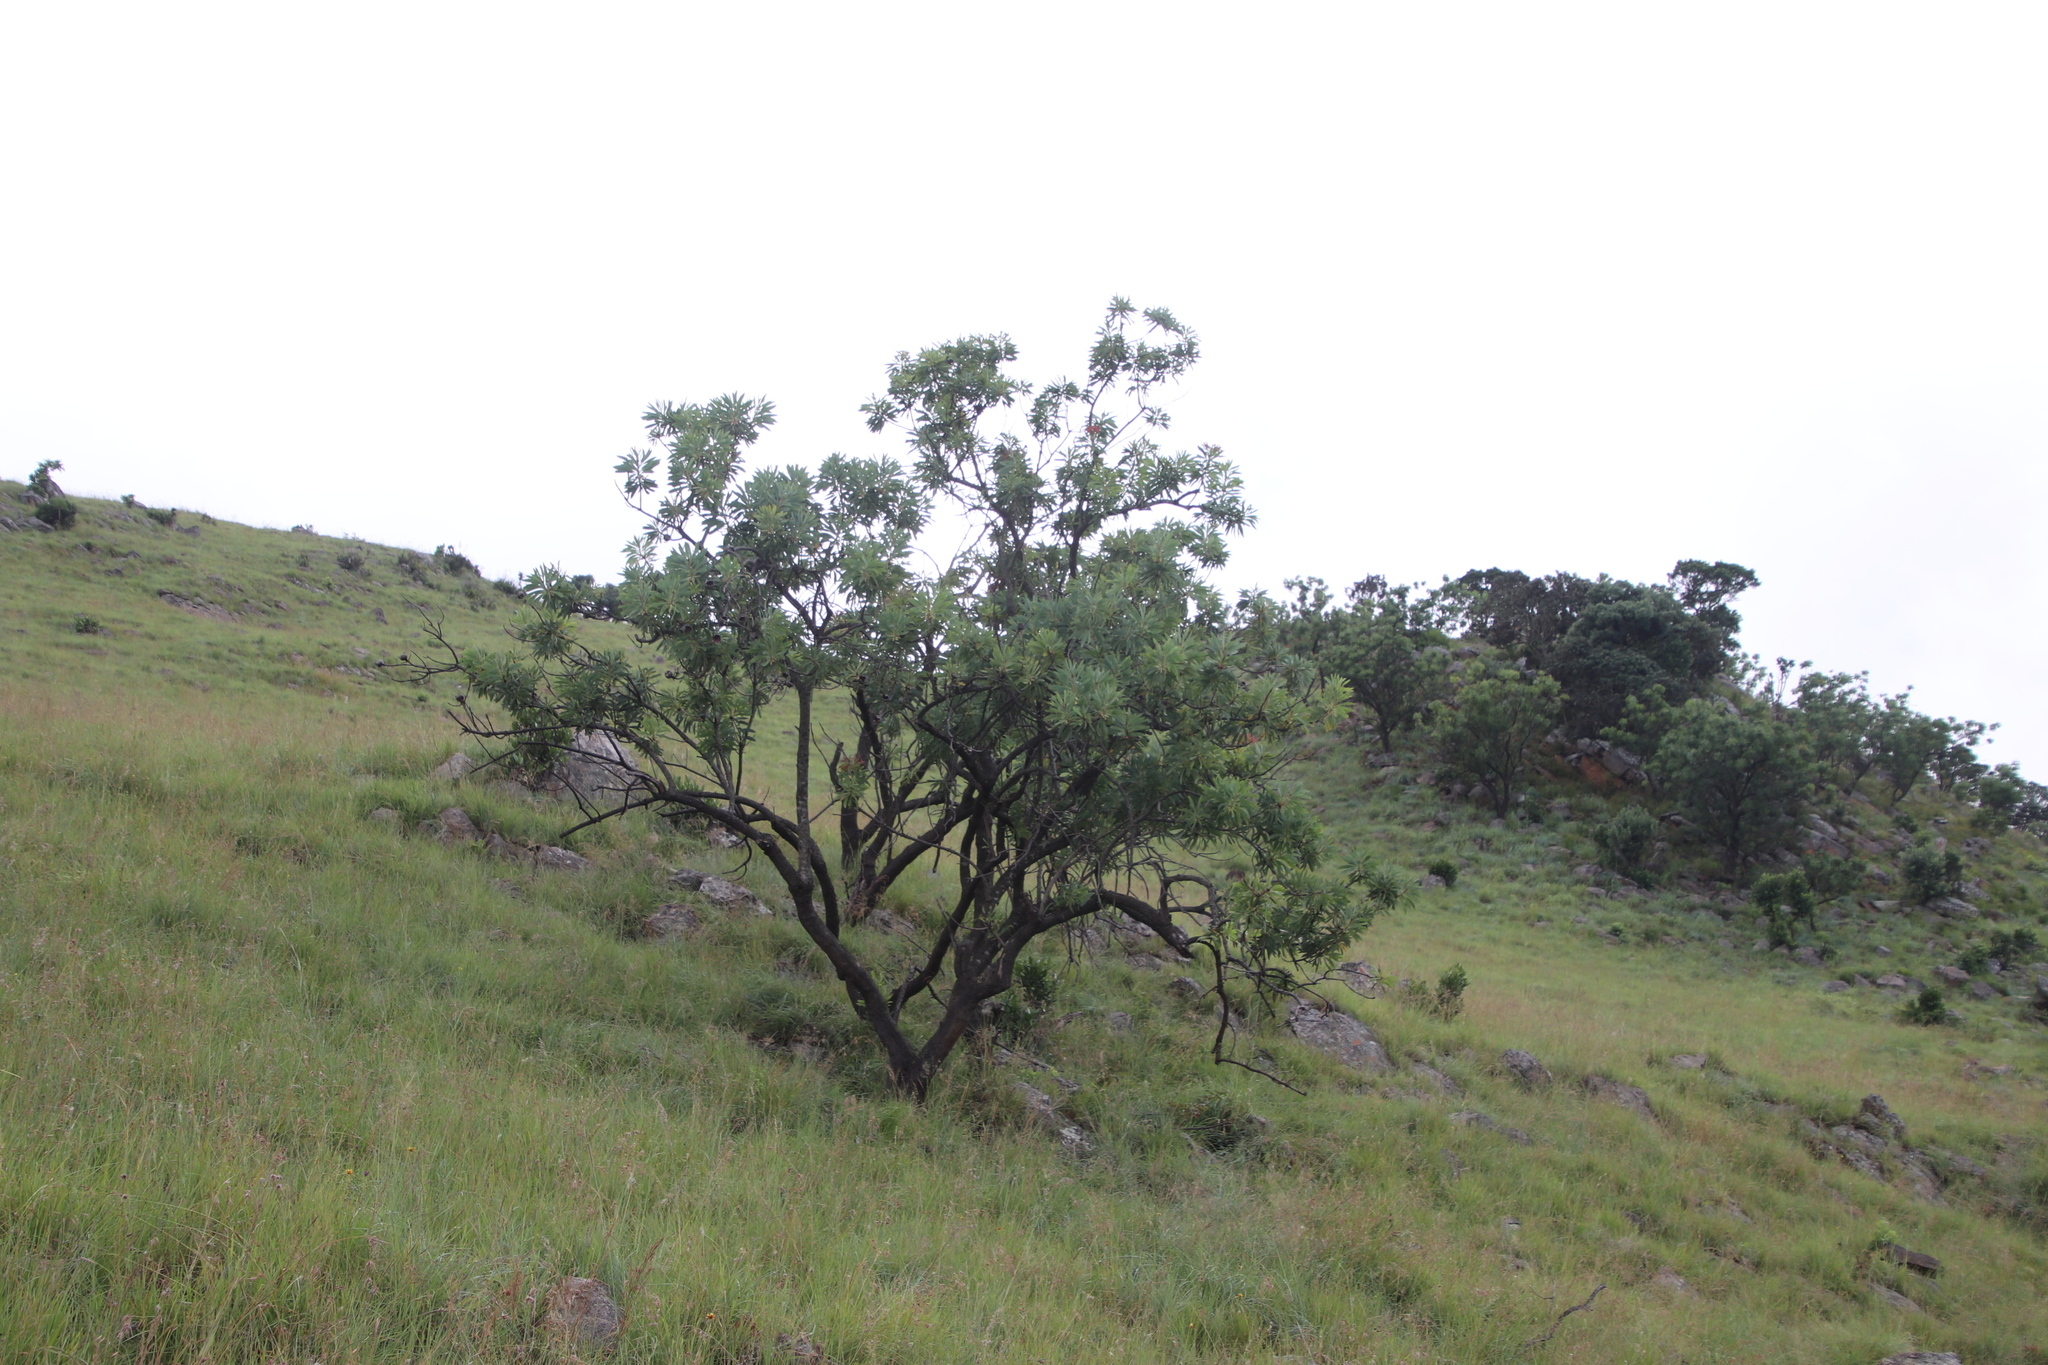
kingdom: Plantae
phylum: Tracheophyta
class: Magnoliopsida
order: Proteales
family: Proteaceae
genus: Protea
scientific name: Protea caffra
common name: Common sugarbush
